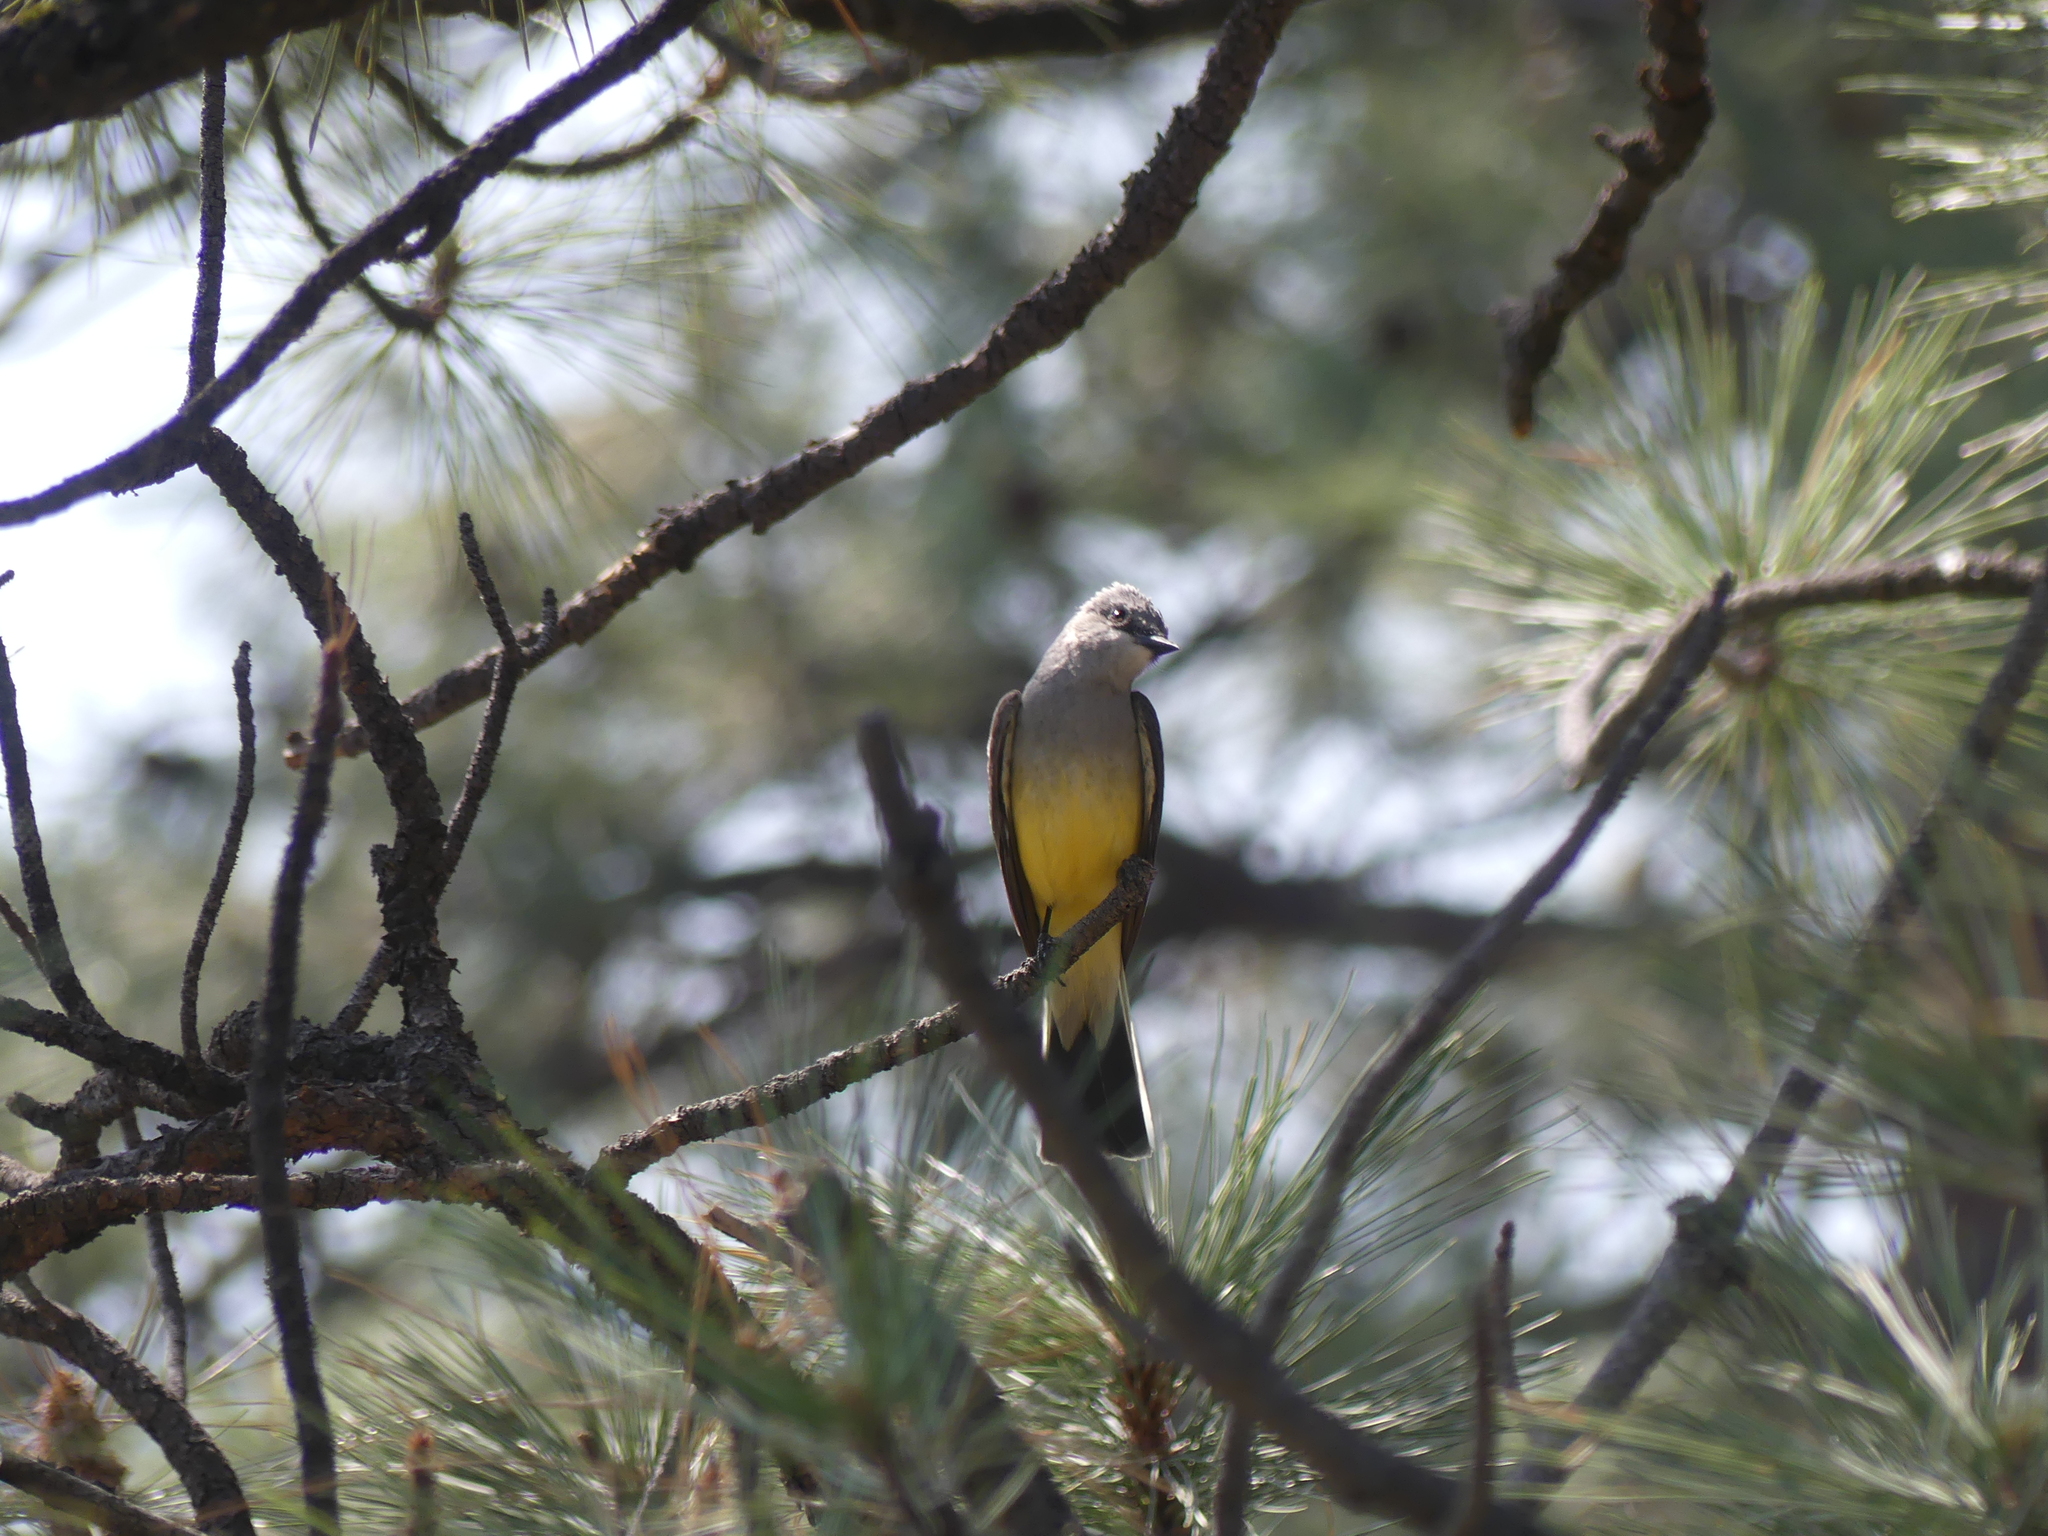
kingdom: Animalia
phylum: Chordata
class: Aves
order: Passeriformes
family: Tyrannidae
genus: Tyrannus
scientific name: Tyrannus verticalis
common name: Western kingbird
